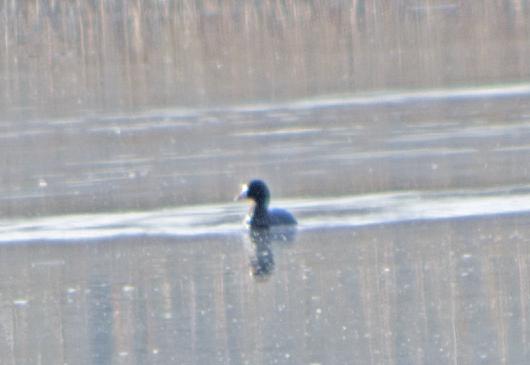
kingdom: Animalia
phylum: Chordata
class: Aves
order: Gruiformes
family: Rallidae
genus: Fulica
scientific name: Fulica atra
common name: Eurasian coot
